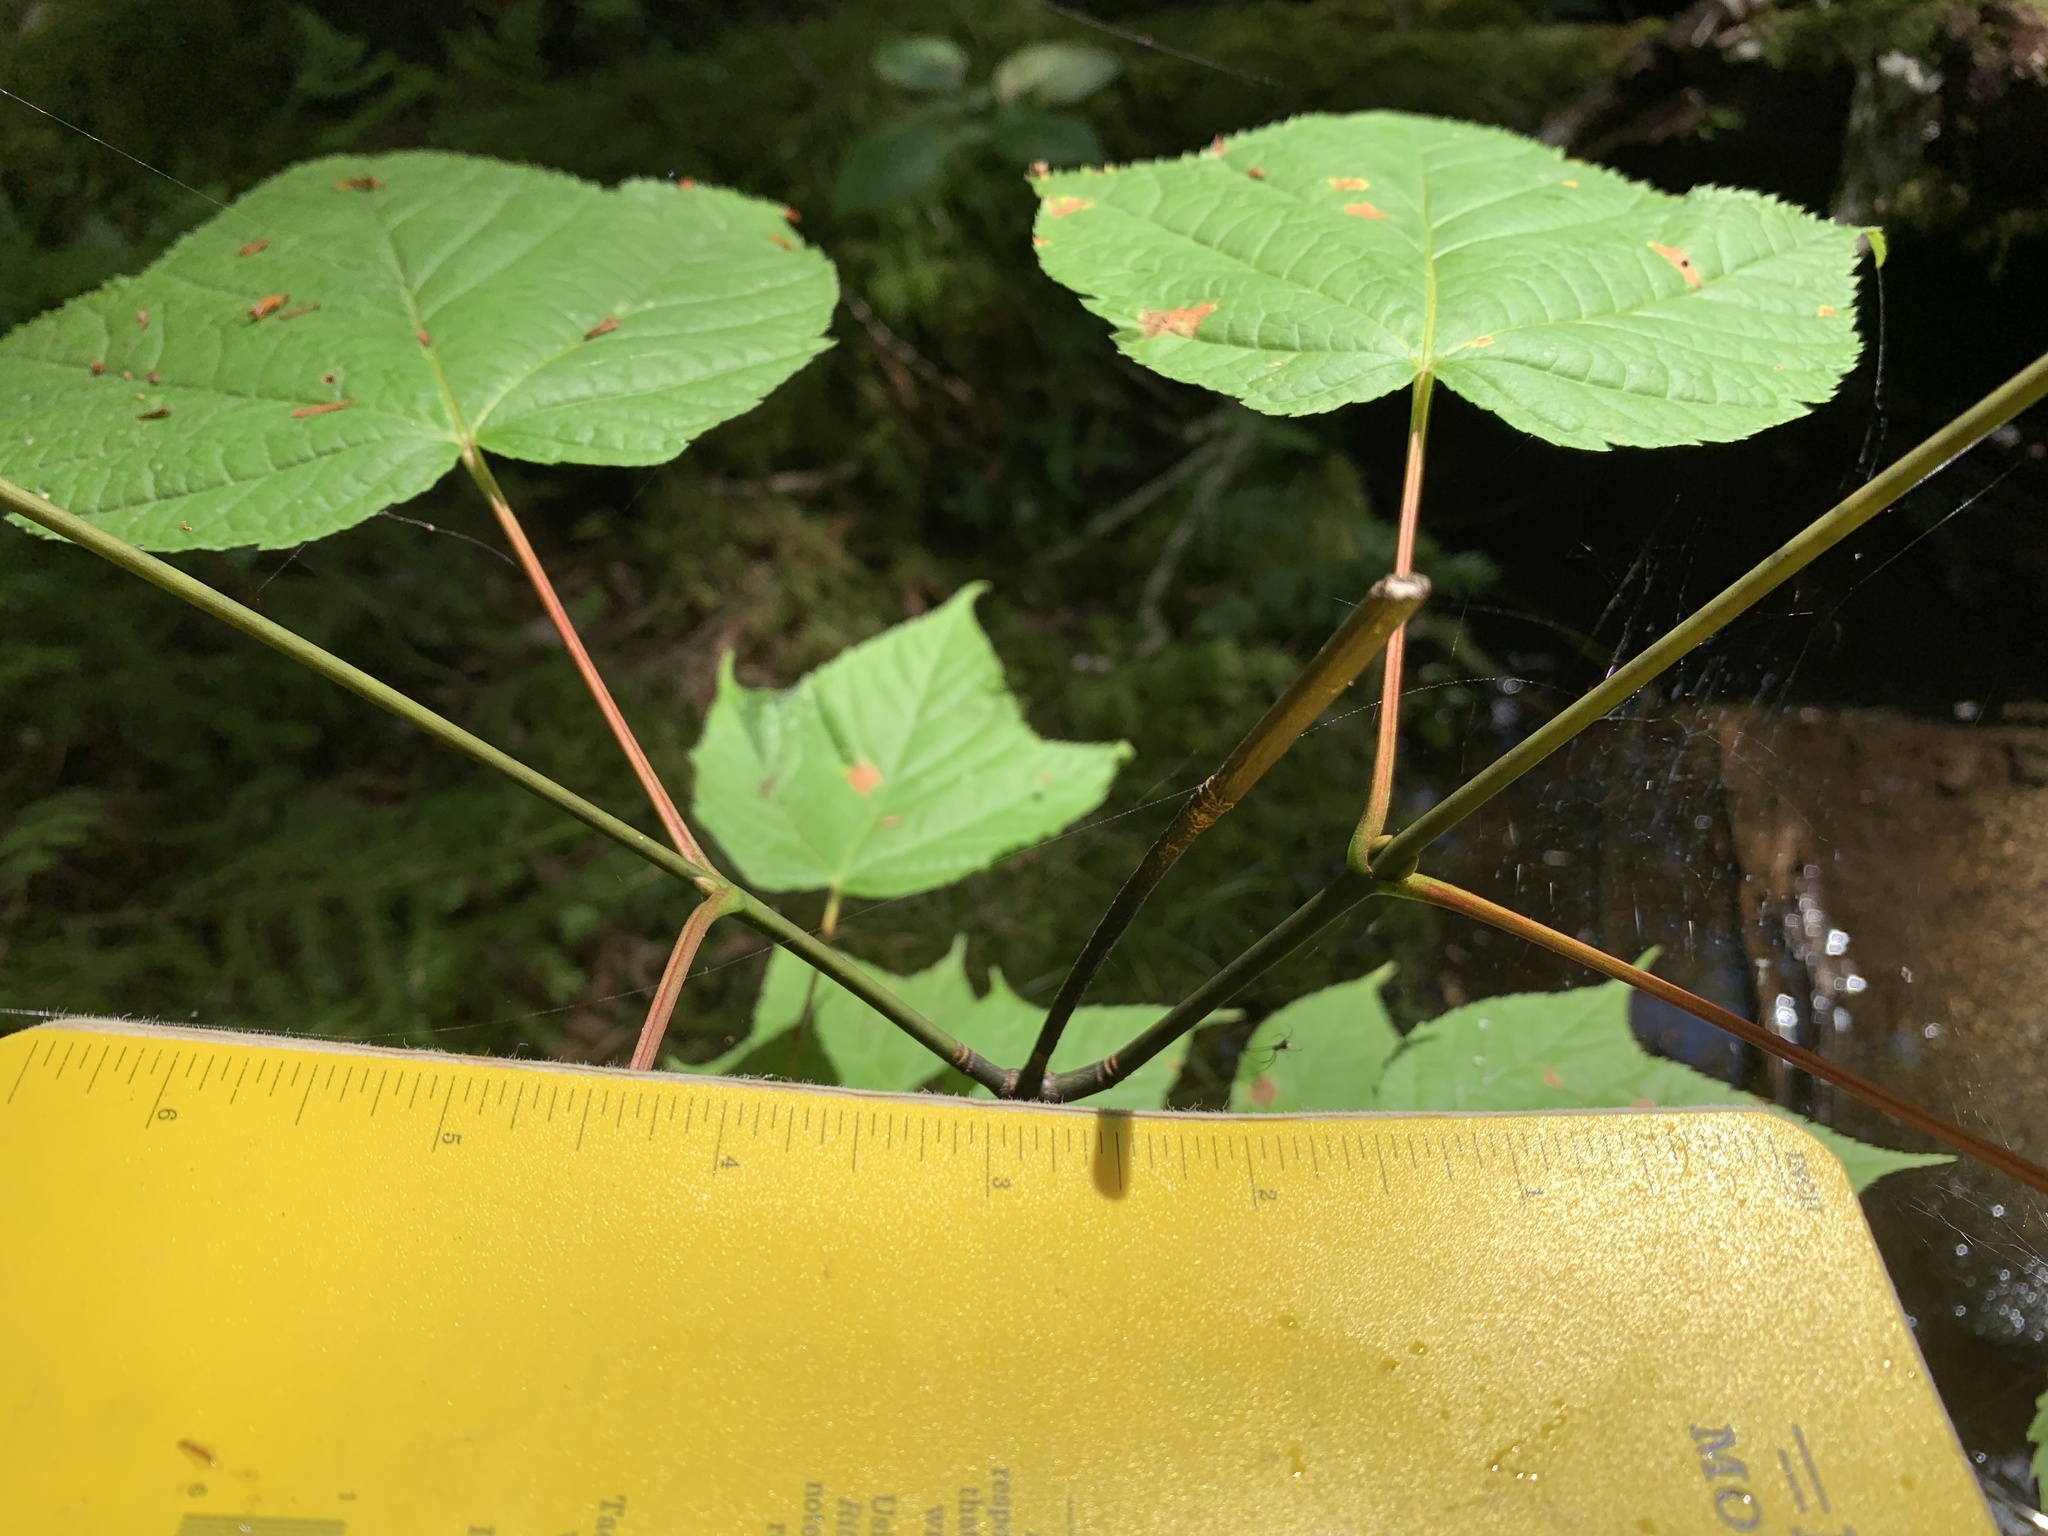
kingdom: Plantae
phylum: Tracheophyta
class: Magnoliopsida
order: Sapindales
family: Sapindaceae
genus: Acer
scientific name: Acer pensylvanicum
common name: Moosewood
